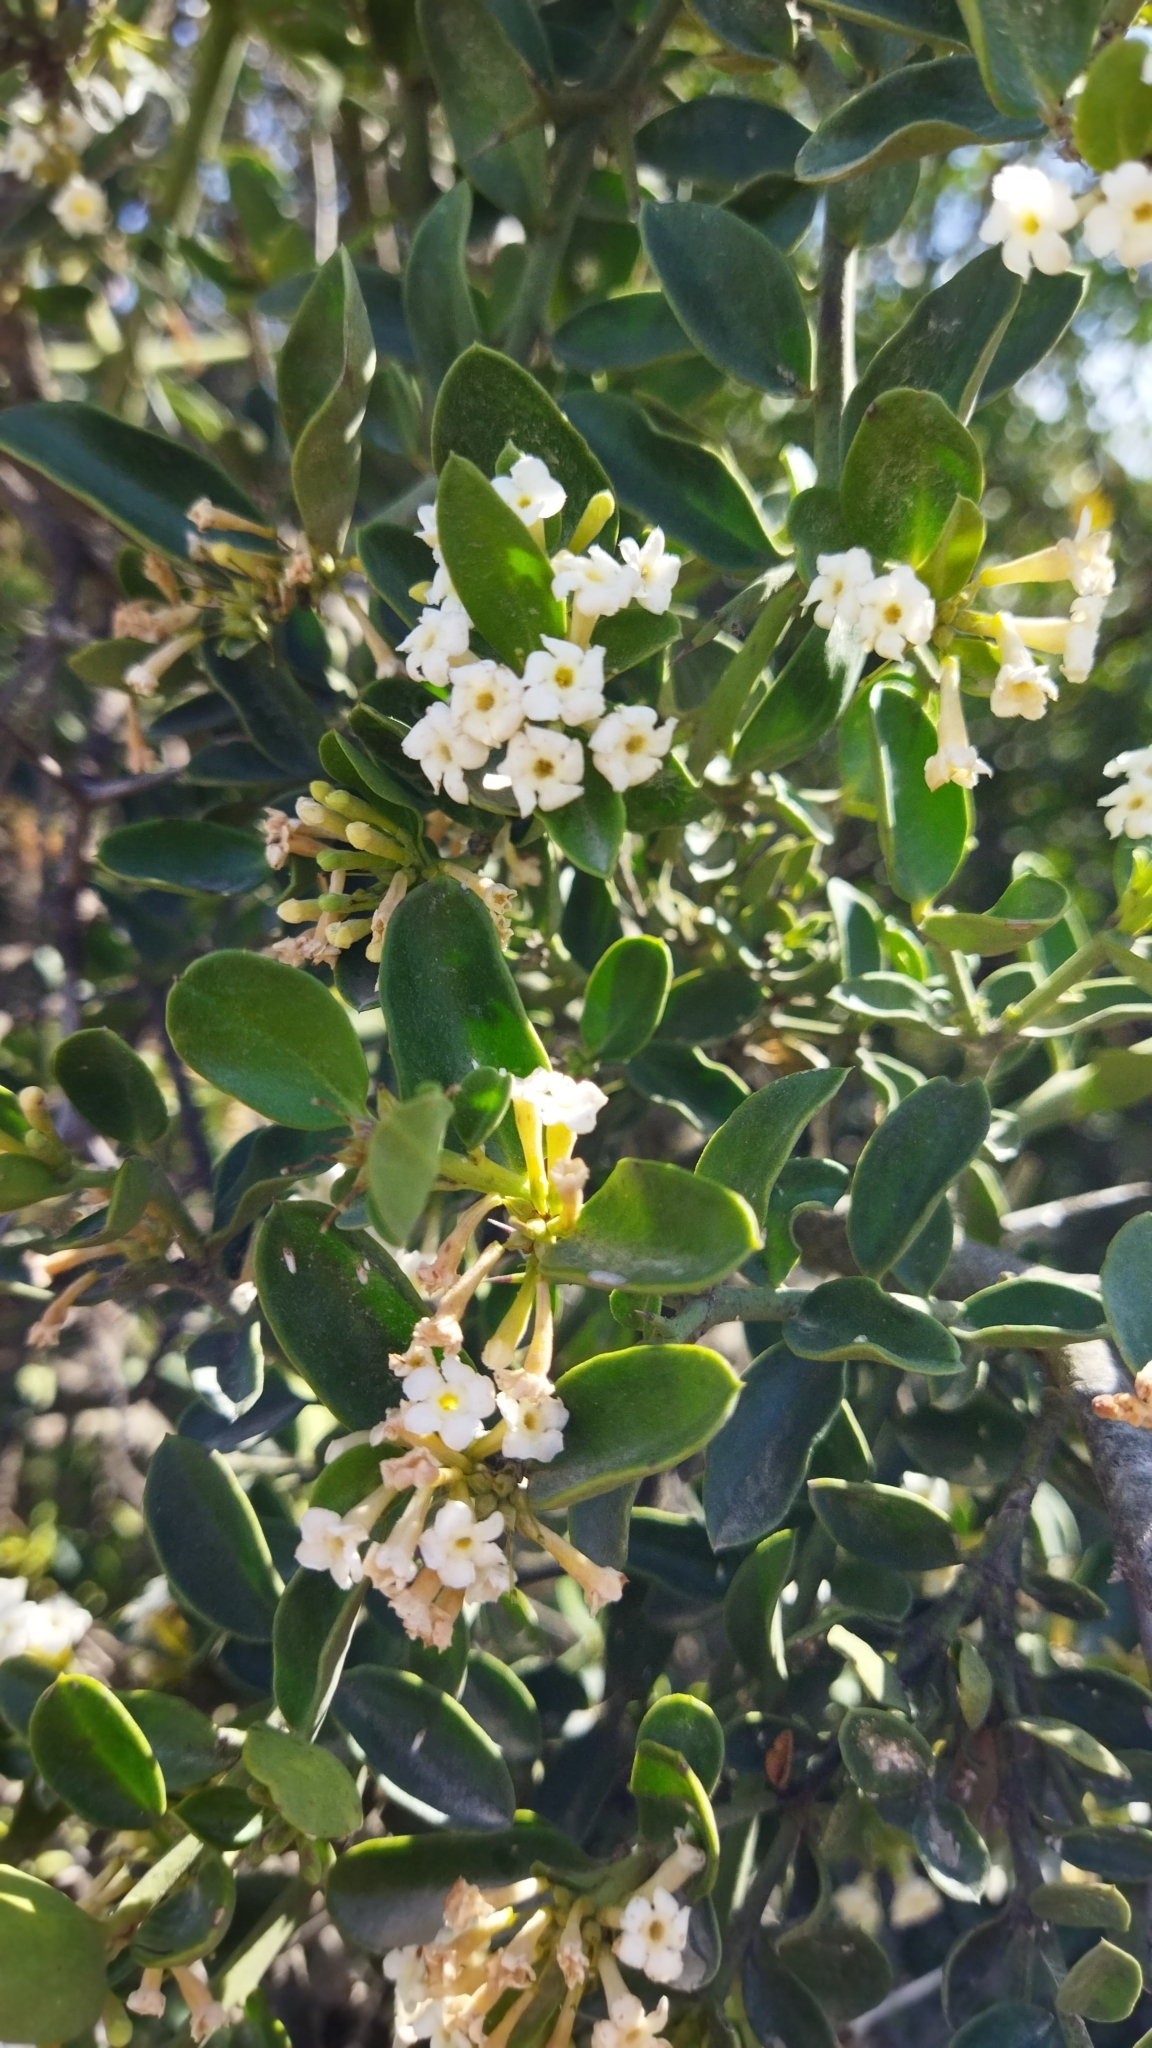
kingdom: Plantae
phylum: Tracheophyta
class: Magnoliopsida
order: Gentianales
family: Apocynaceae
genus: Carissa
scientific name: Carissa haematocarpa
